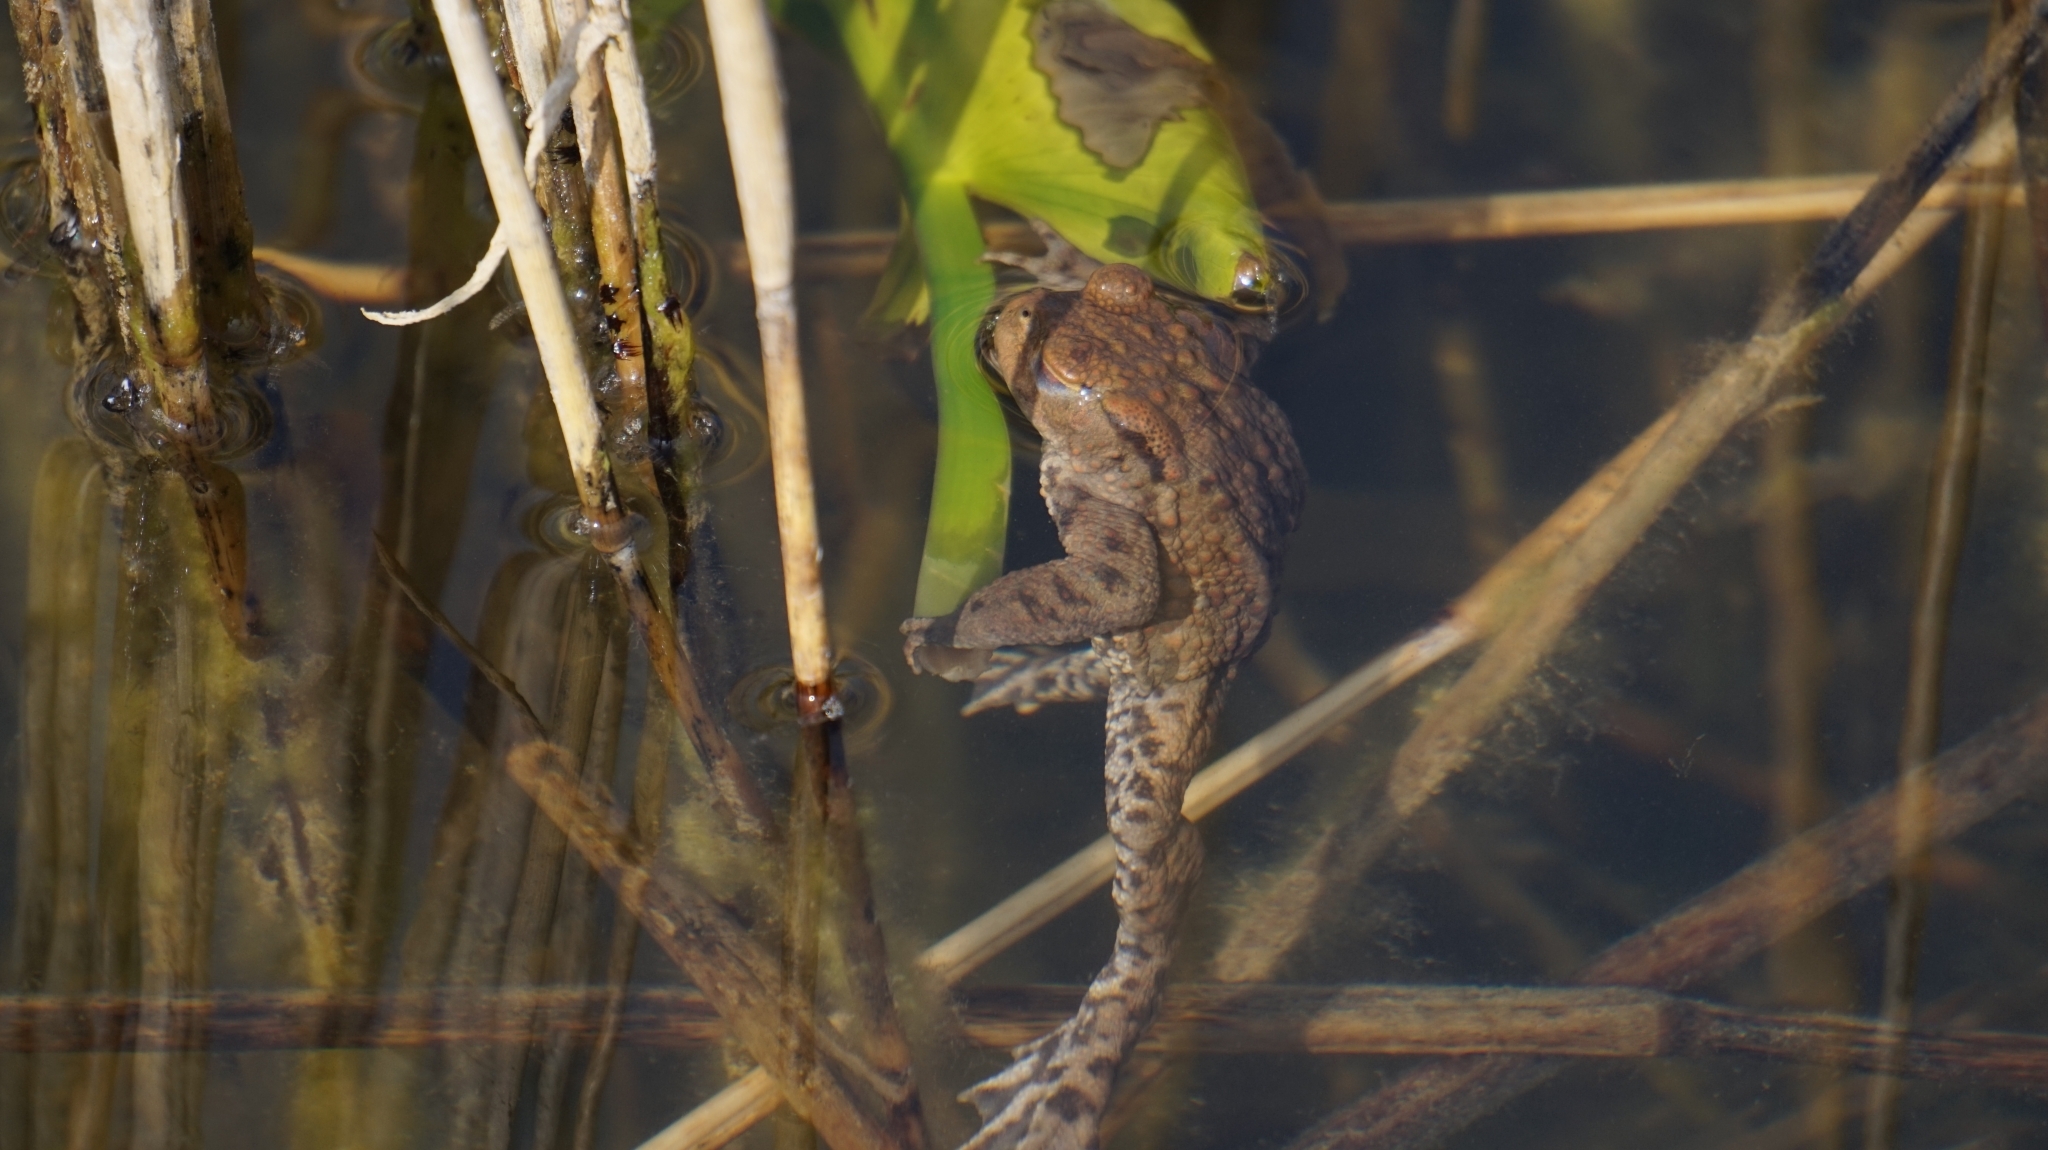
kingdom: Animalia
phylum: Chordata
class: Amphibia
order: Anura
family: Bufonidae
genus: Bufo
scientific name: Bufo bufo
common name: Common toad
